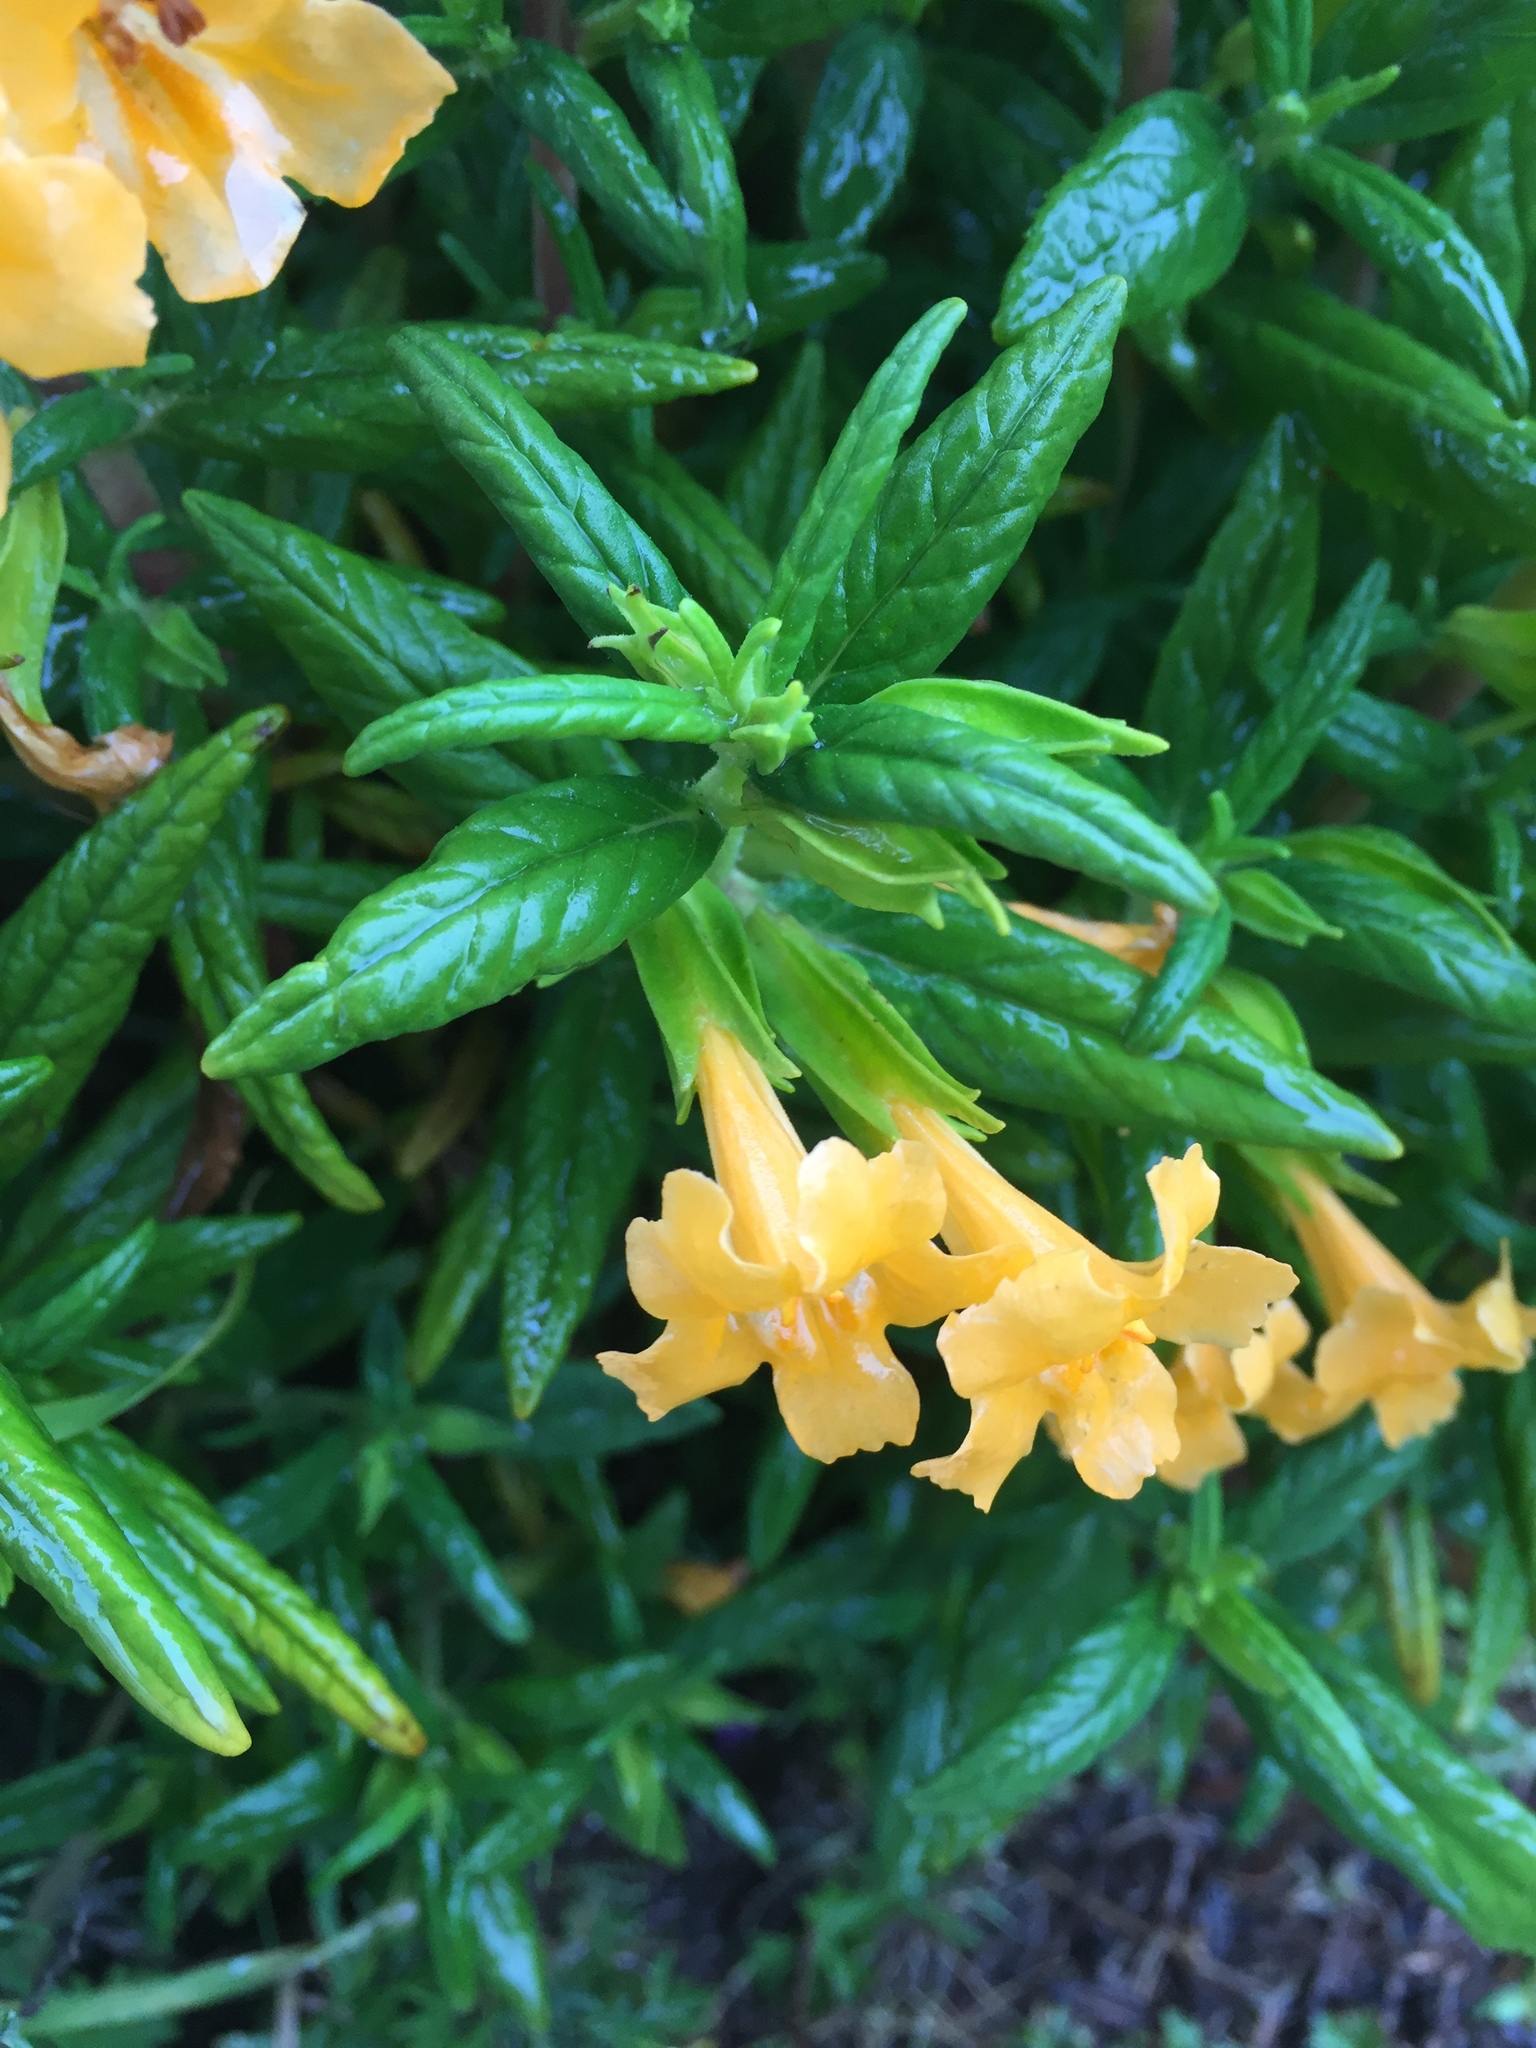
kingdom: Plantae
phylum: Tracheophyta
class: Magnoliopsida
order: Lamiales
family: Phrymaceae
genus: Diplacus
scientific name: Diplacus aurantiacus
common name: Bush monkey-flower
